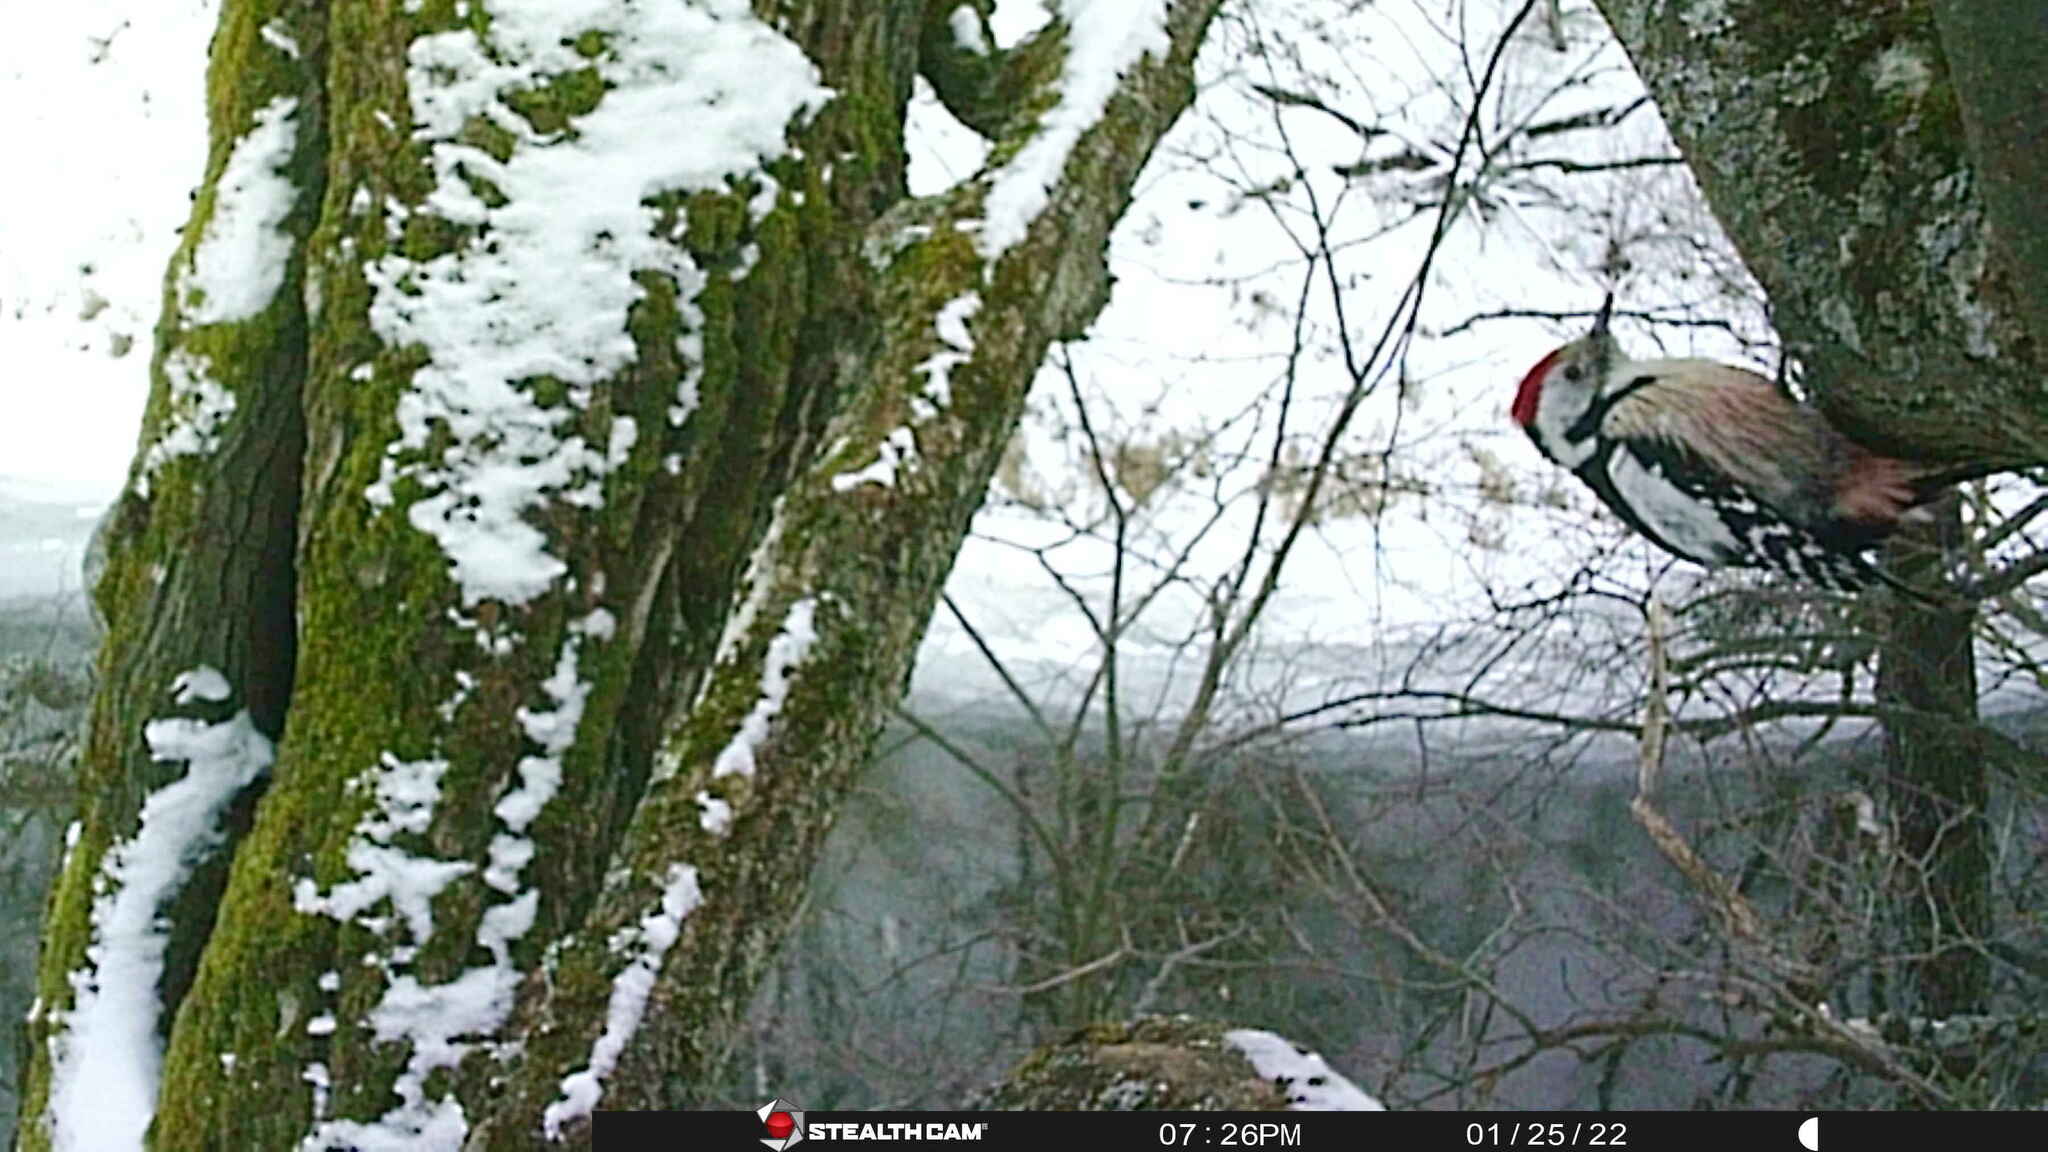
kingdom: Animalia
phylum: Chordata
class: Aves
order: Piciformes
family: Picidae
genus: Dendrocoptes
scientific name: Dendrocoptes medius
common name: Middle spotted woodpecker
